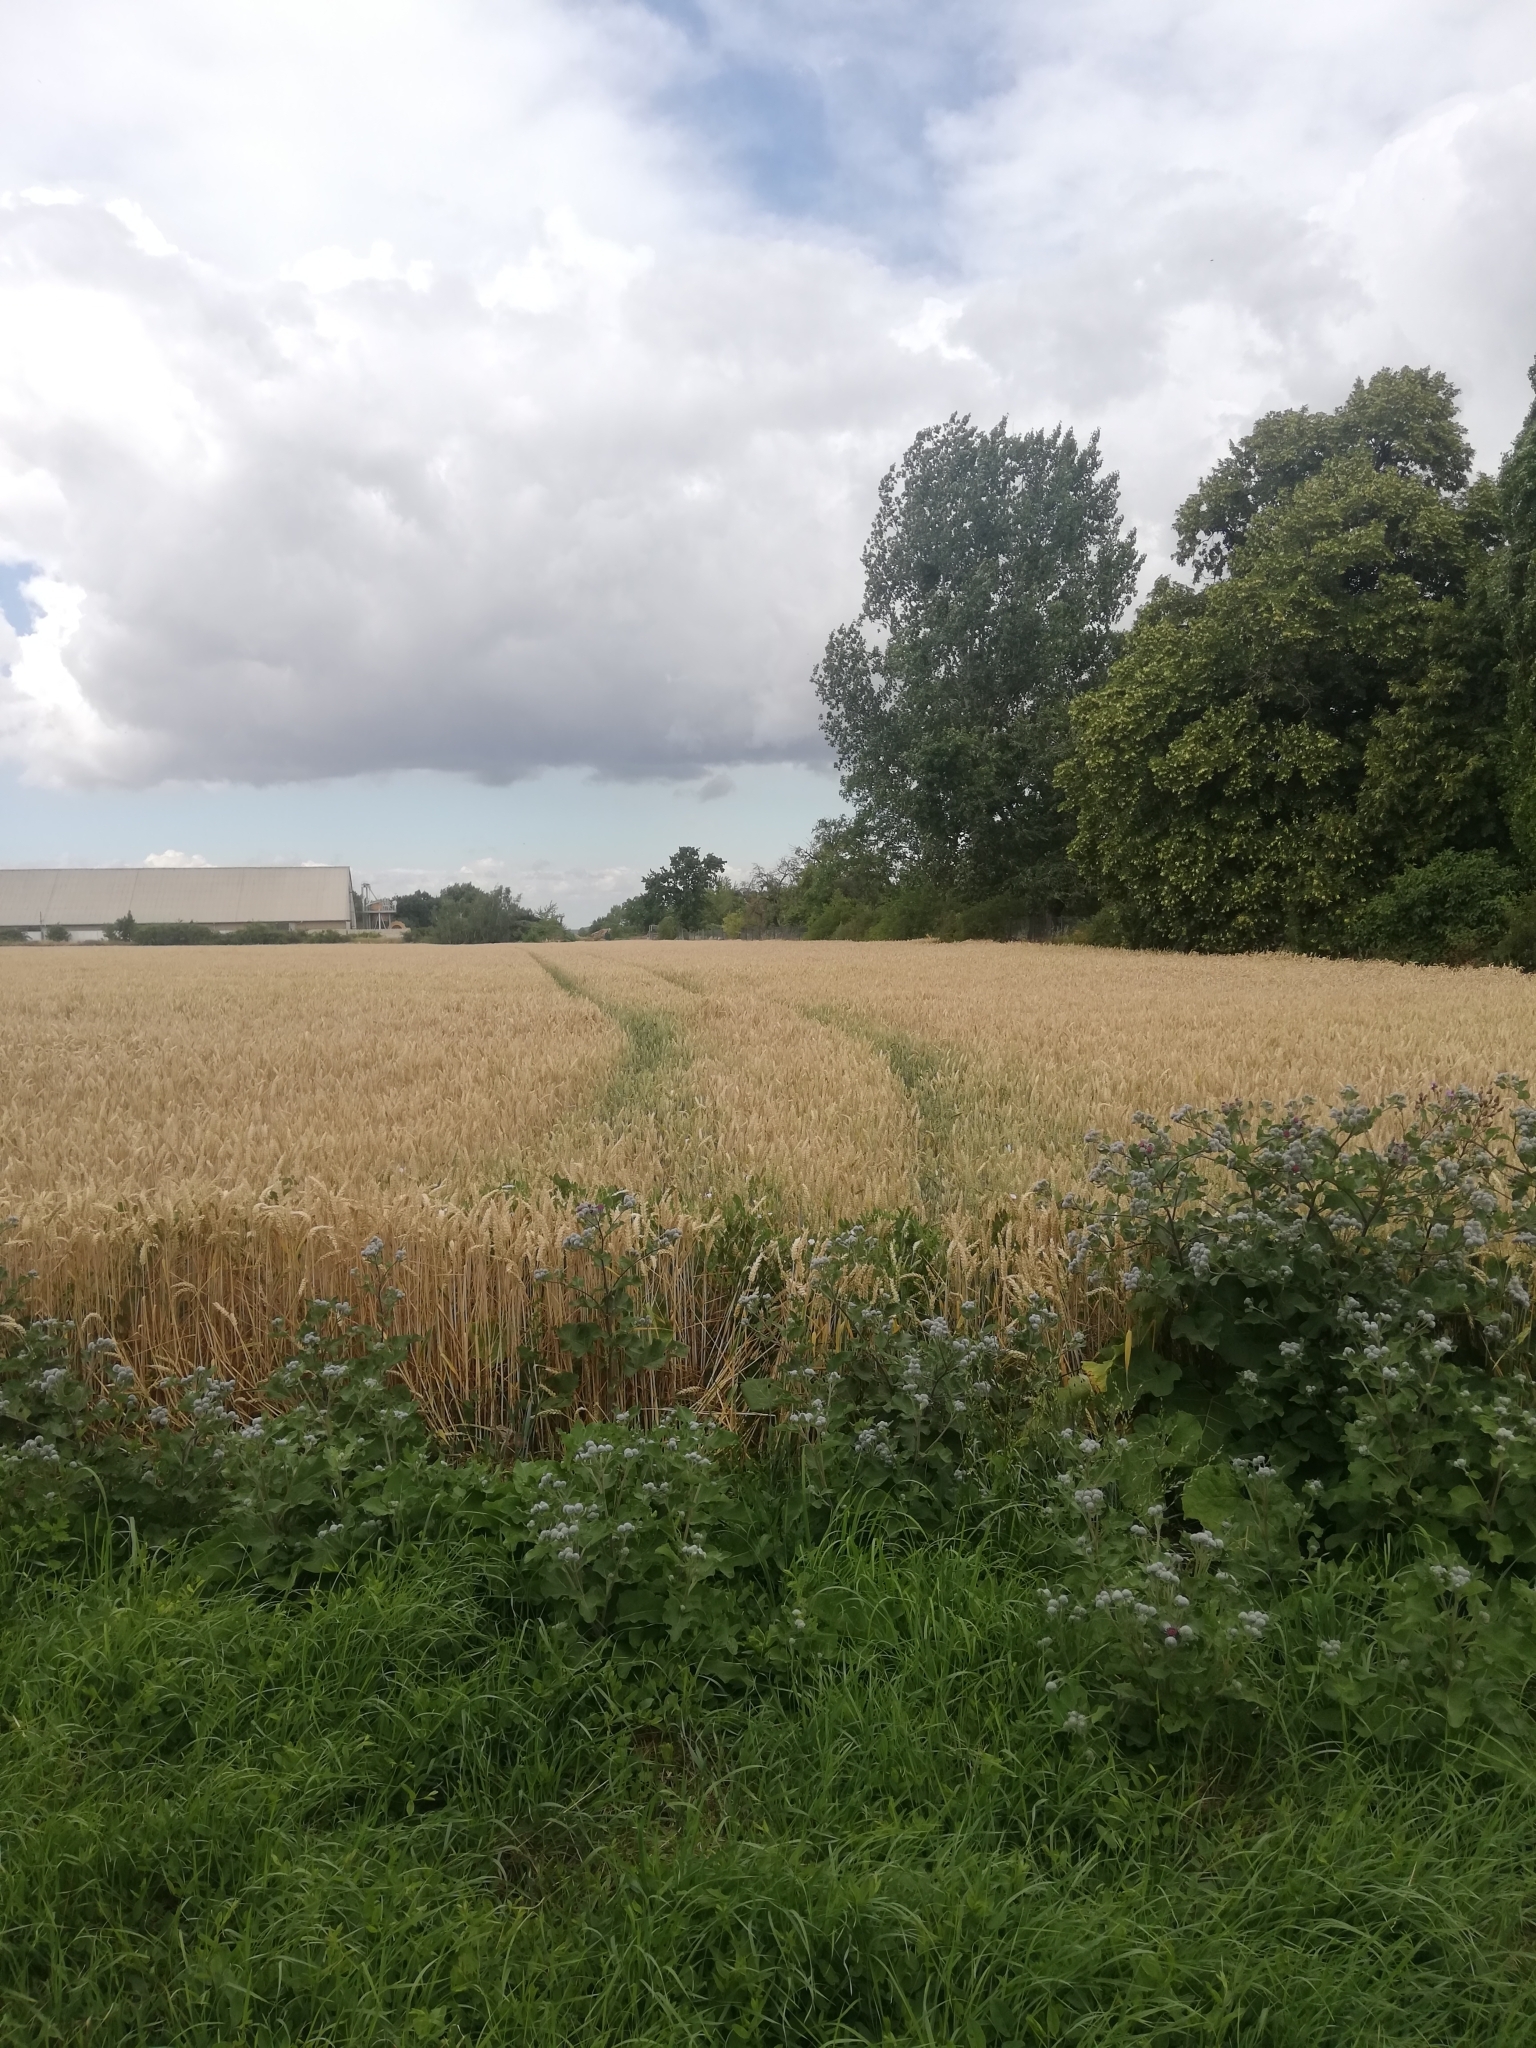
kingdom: Animalia
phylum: Arthropoda
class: Insecta
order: Diptera
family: Syrphidae
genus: Episyrphus
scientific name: Episyrphus balteatus
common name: Marmalade hoverfly
